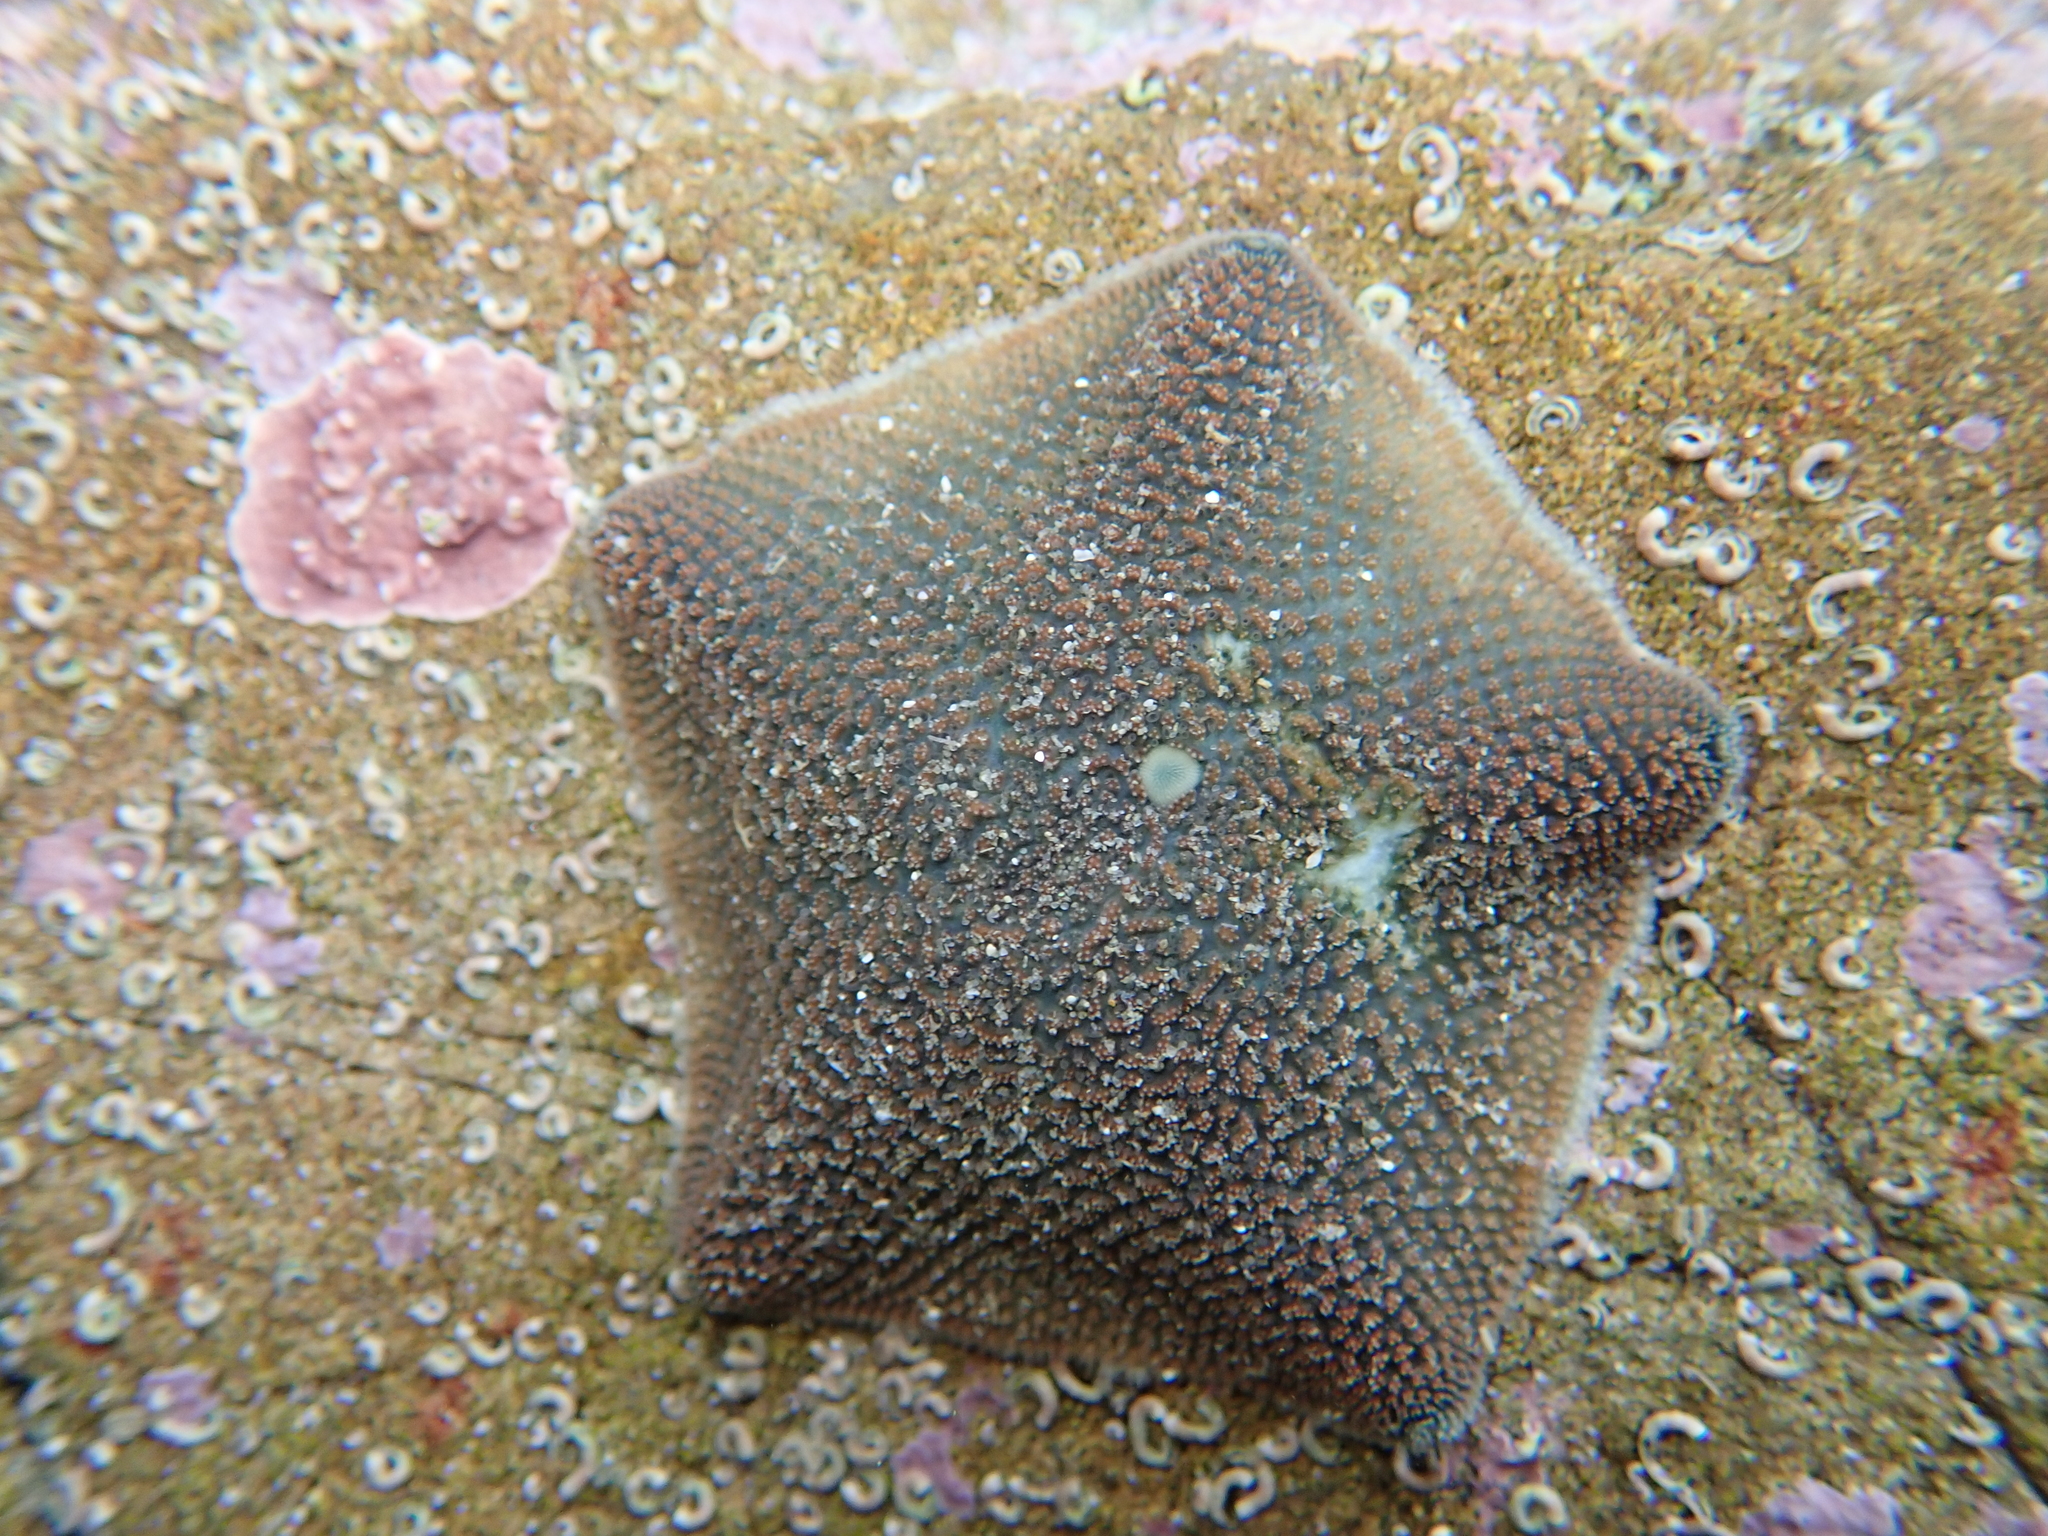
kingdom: Animalia
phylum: Echinodermata
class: Asteroidea
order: Valvatida
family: Asterinidae
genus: Patiriella
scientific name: Patiriella regularis
